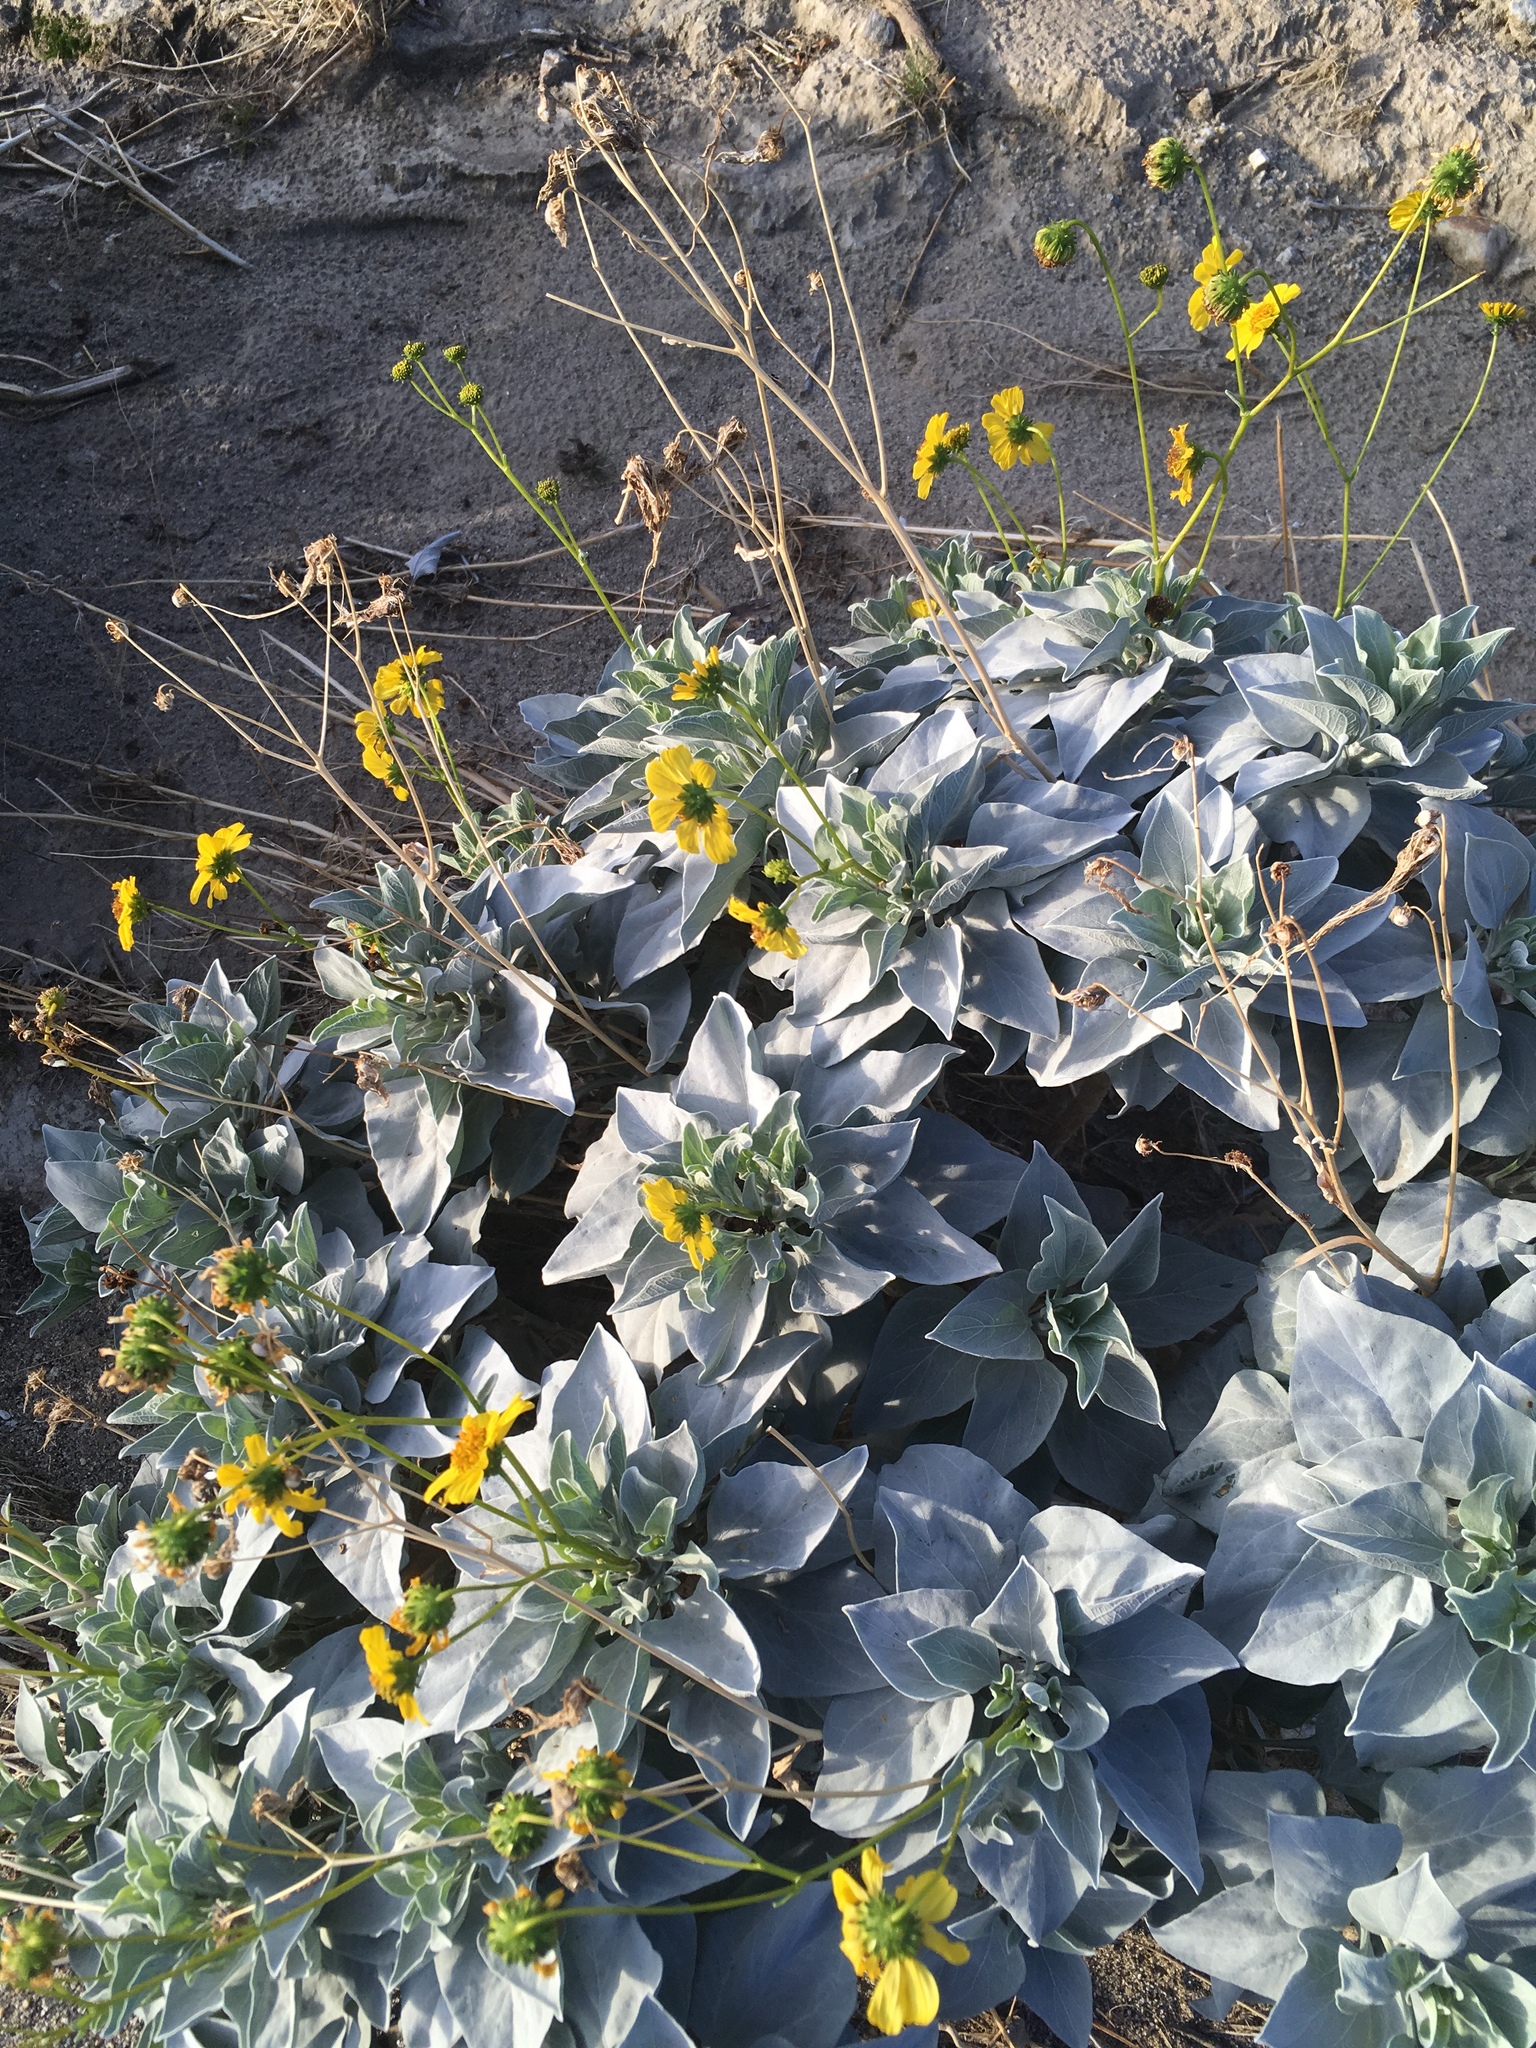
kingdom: Plantae
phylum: Tracheophyta
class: Magnoliopsida
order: Asterales
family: Asteraceae
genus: Encelia
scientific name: Encelia farinosa
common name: Brittlebush
